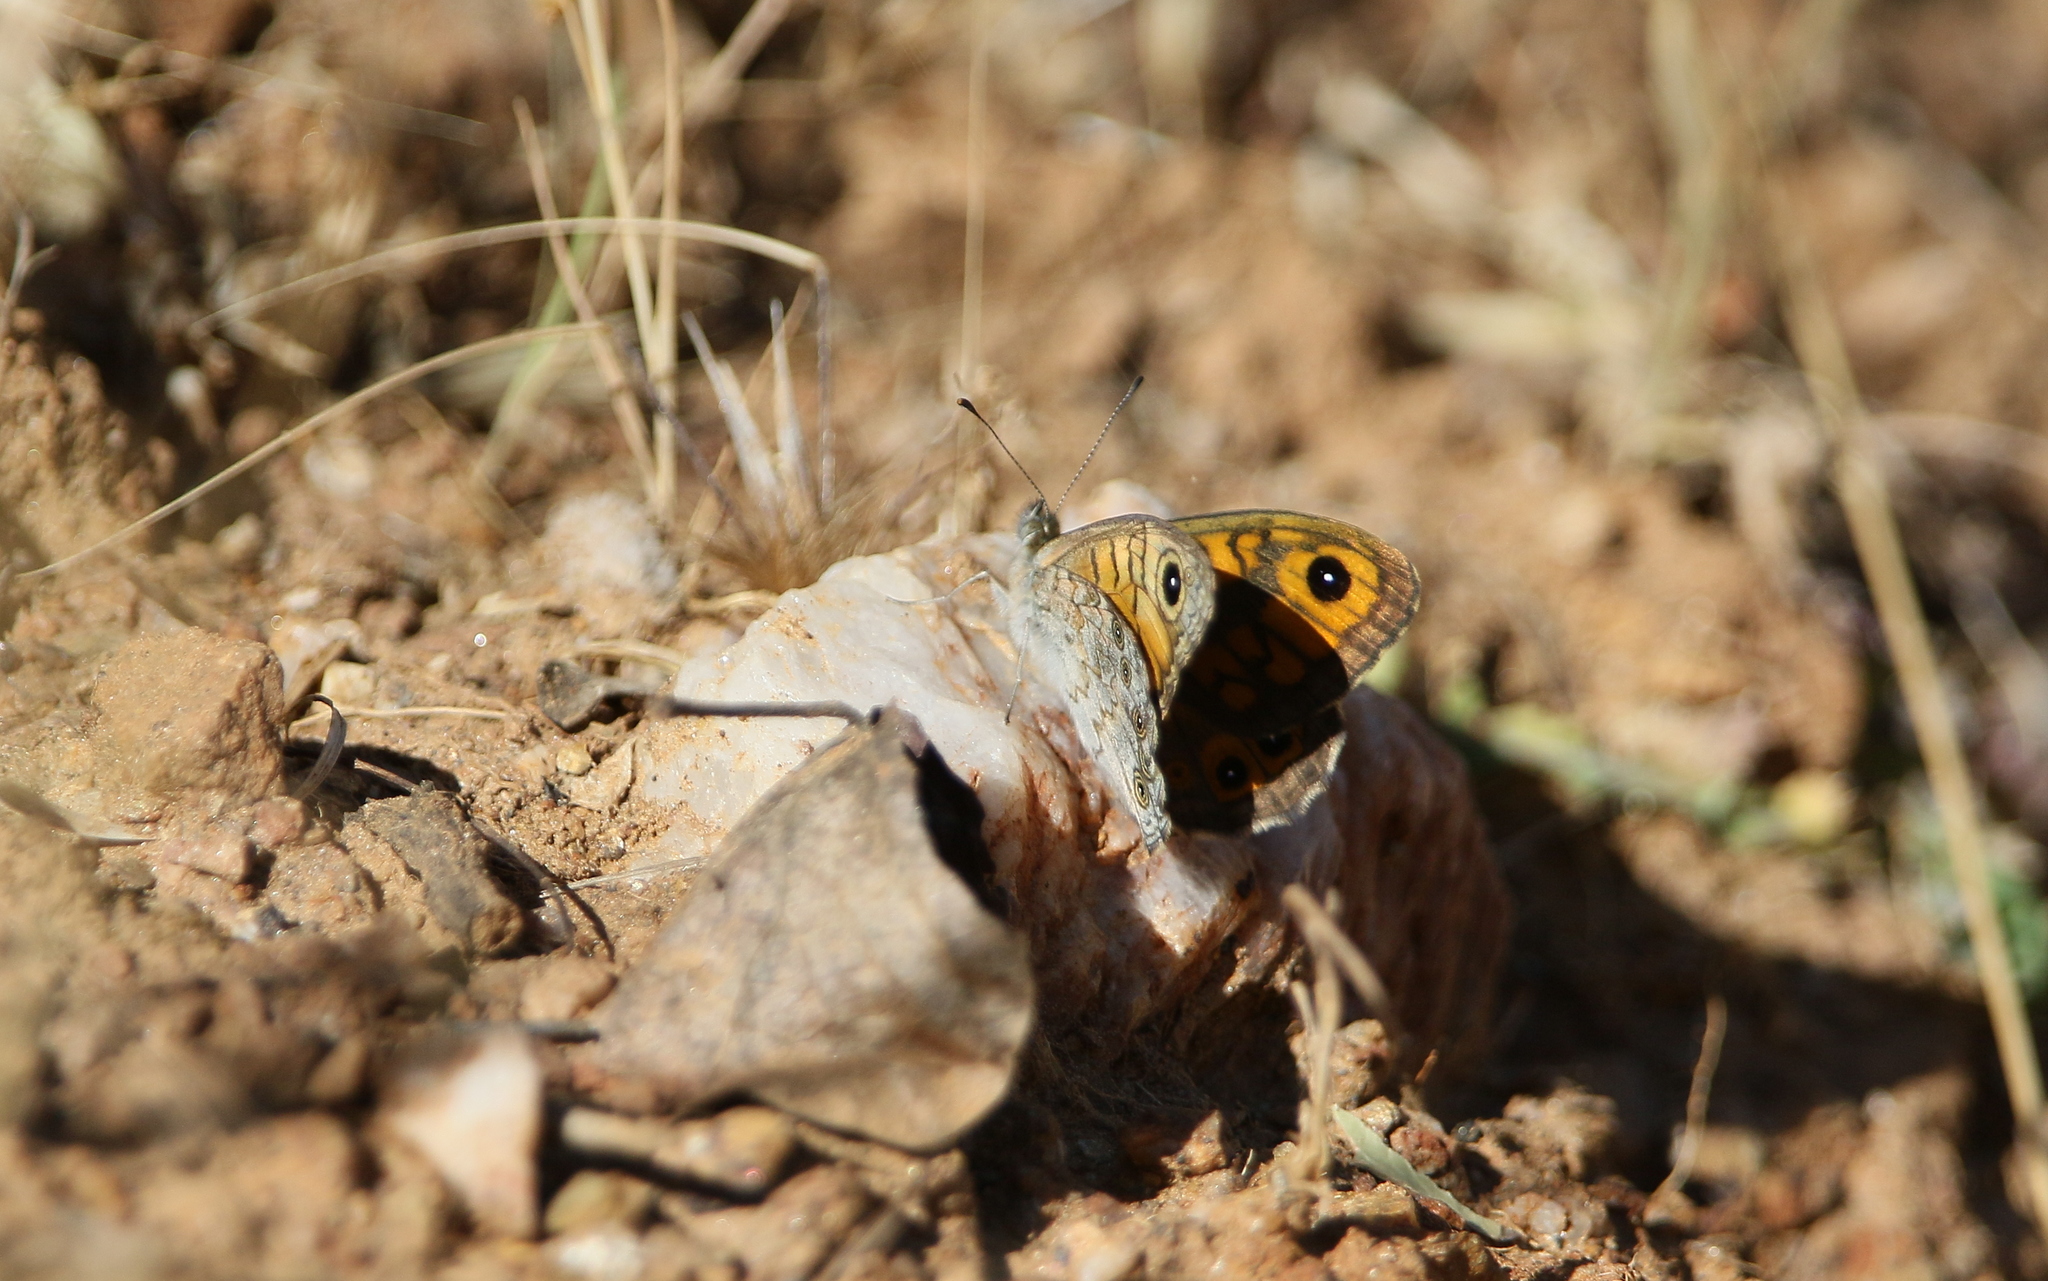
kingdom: Animalia
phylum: Arthropoda
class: Insecta
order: Lepidoptera
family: Nymphalidae
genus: Pararge
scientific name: Pararge Lasiommata megera
